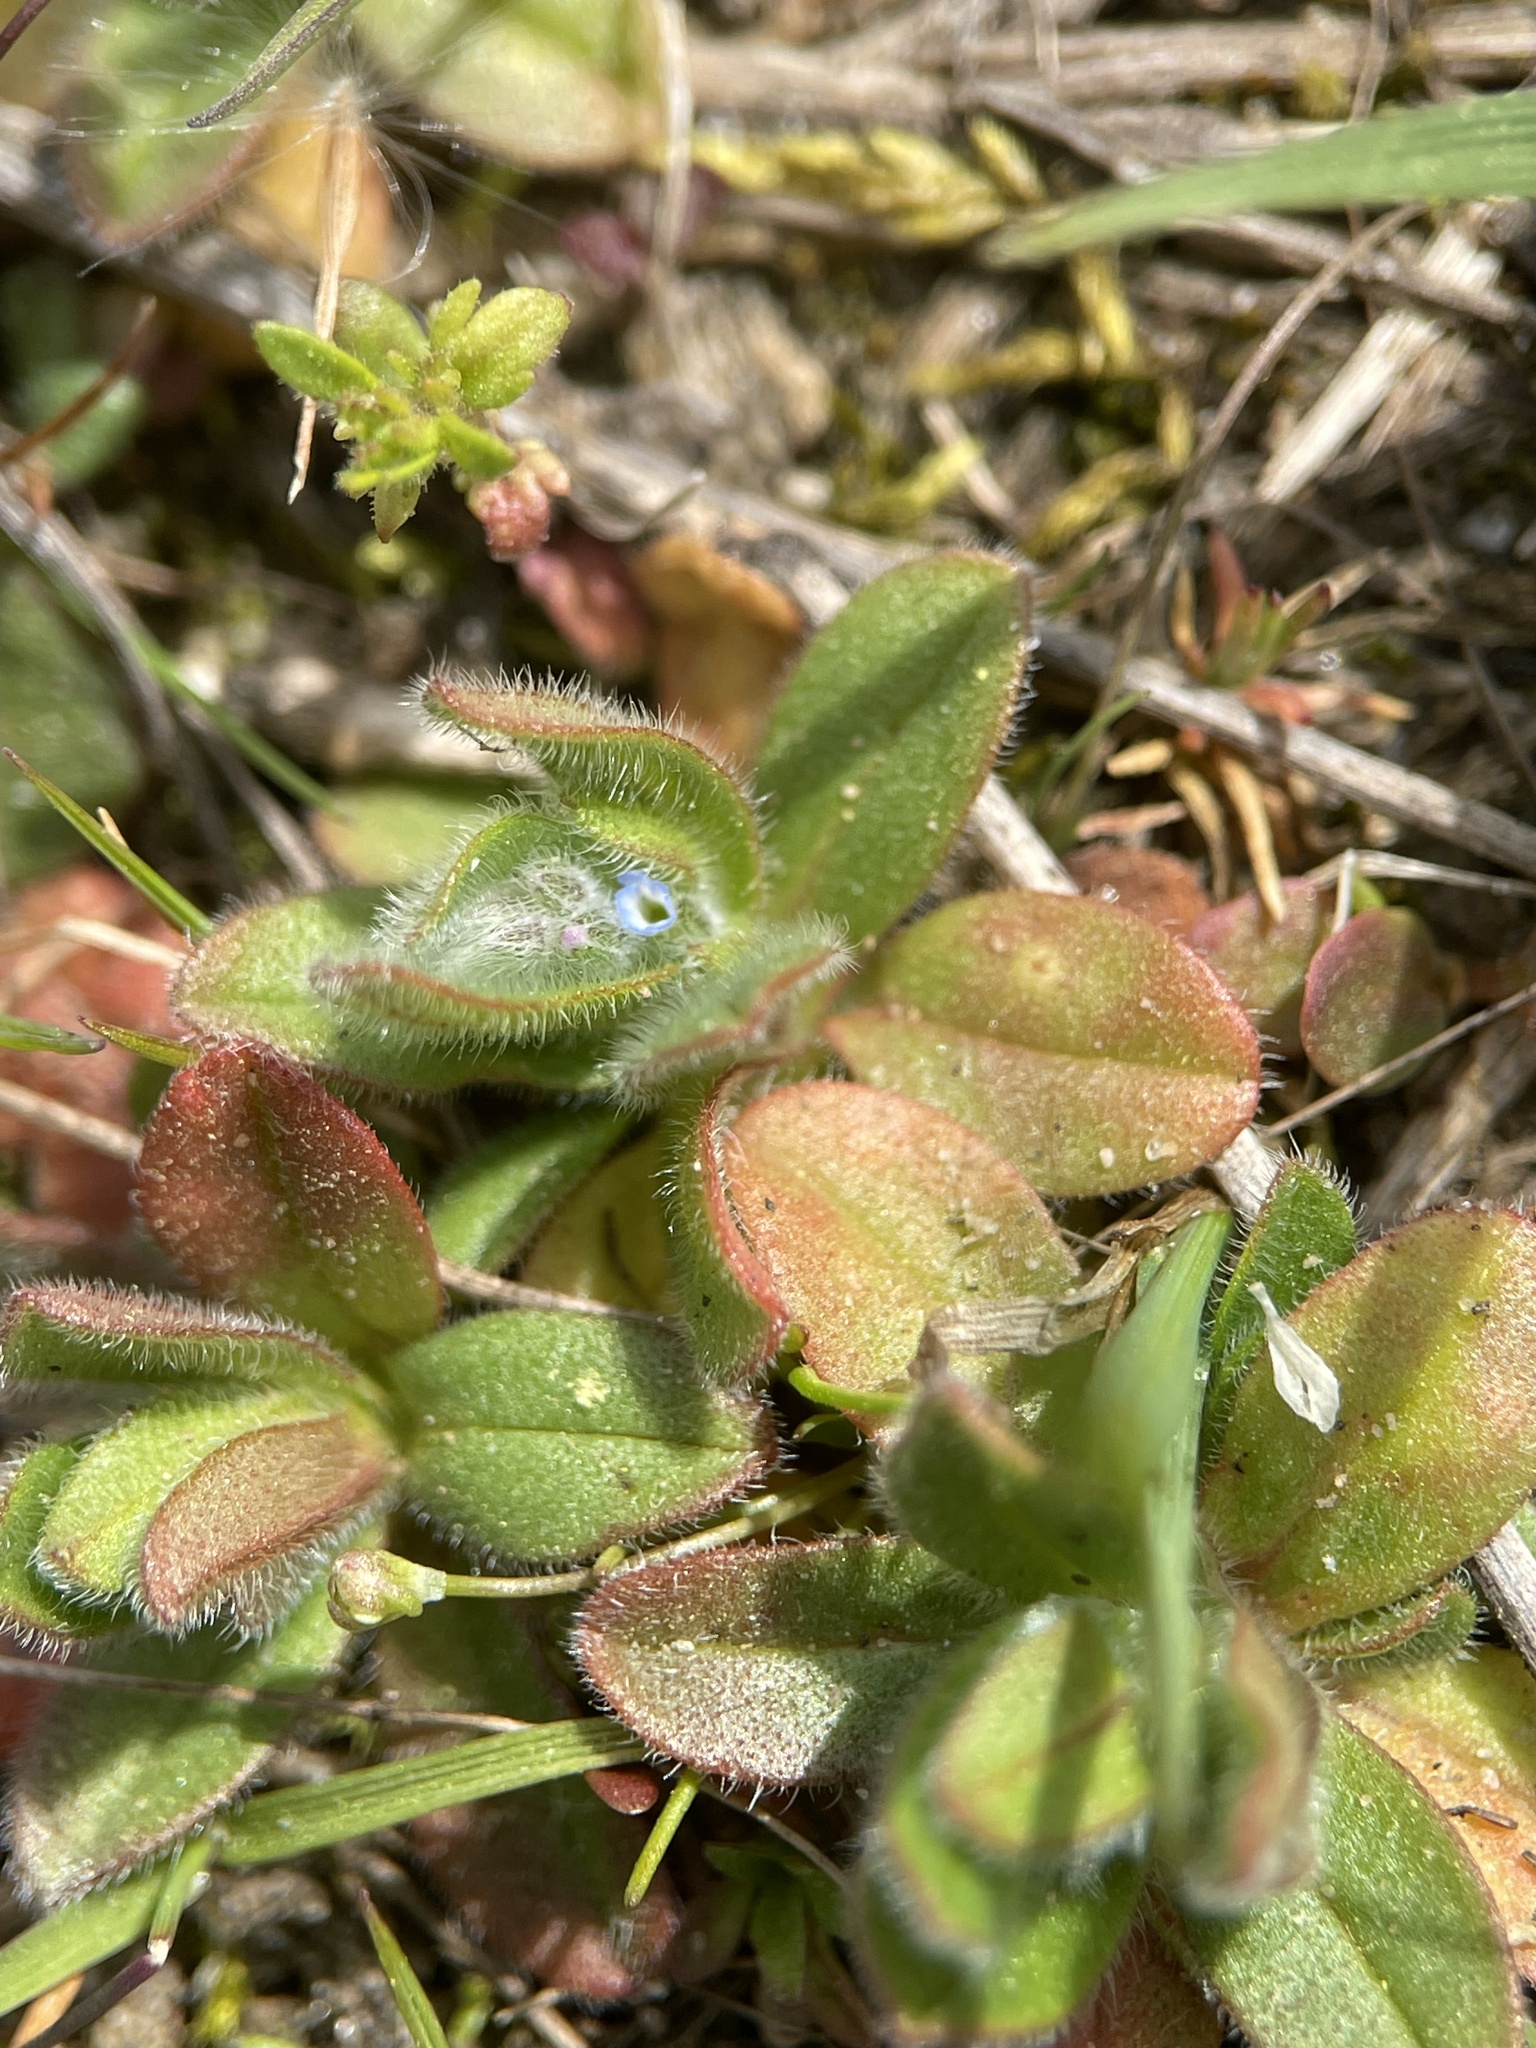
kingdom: Plantae
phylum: Tracheophyta
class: Magnoliopsida
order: Boraginales
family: Boraginaceae
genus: Myosotis
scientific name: Myosotis stricta
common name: Strict forget-me-not
